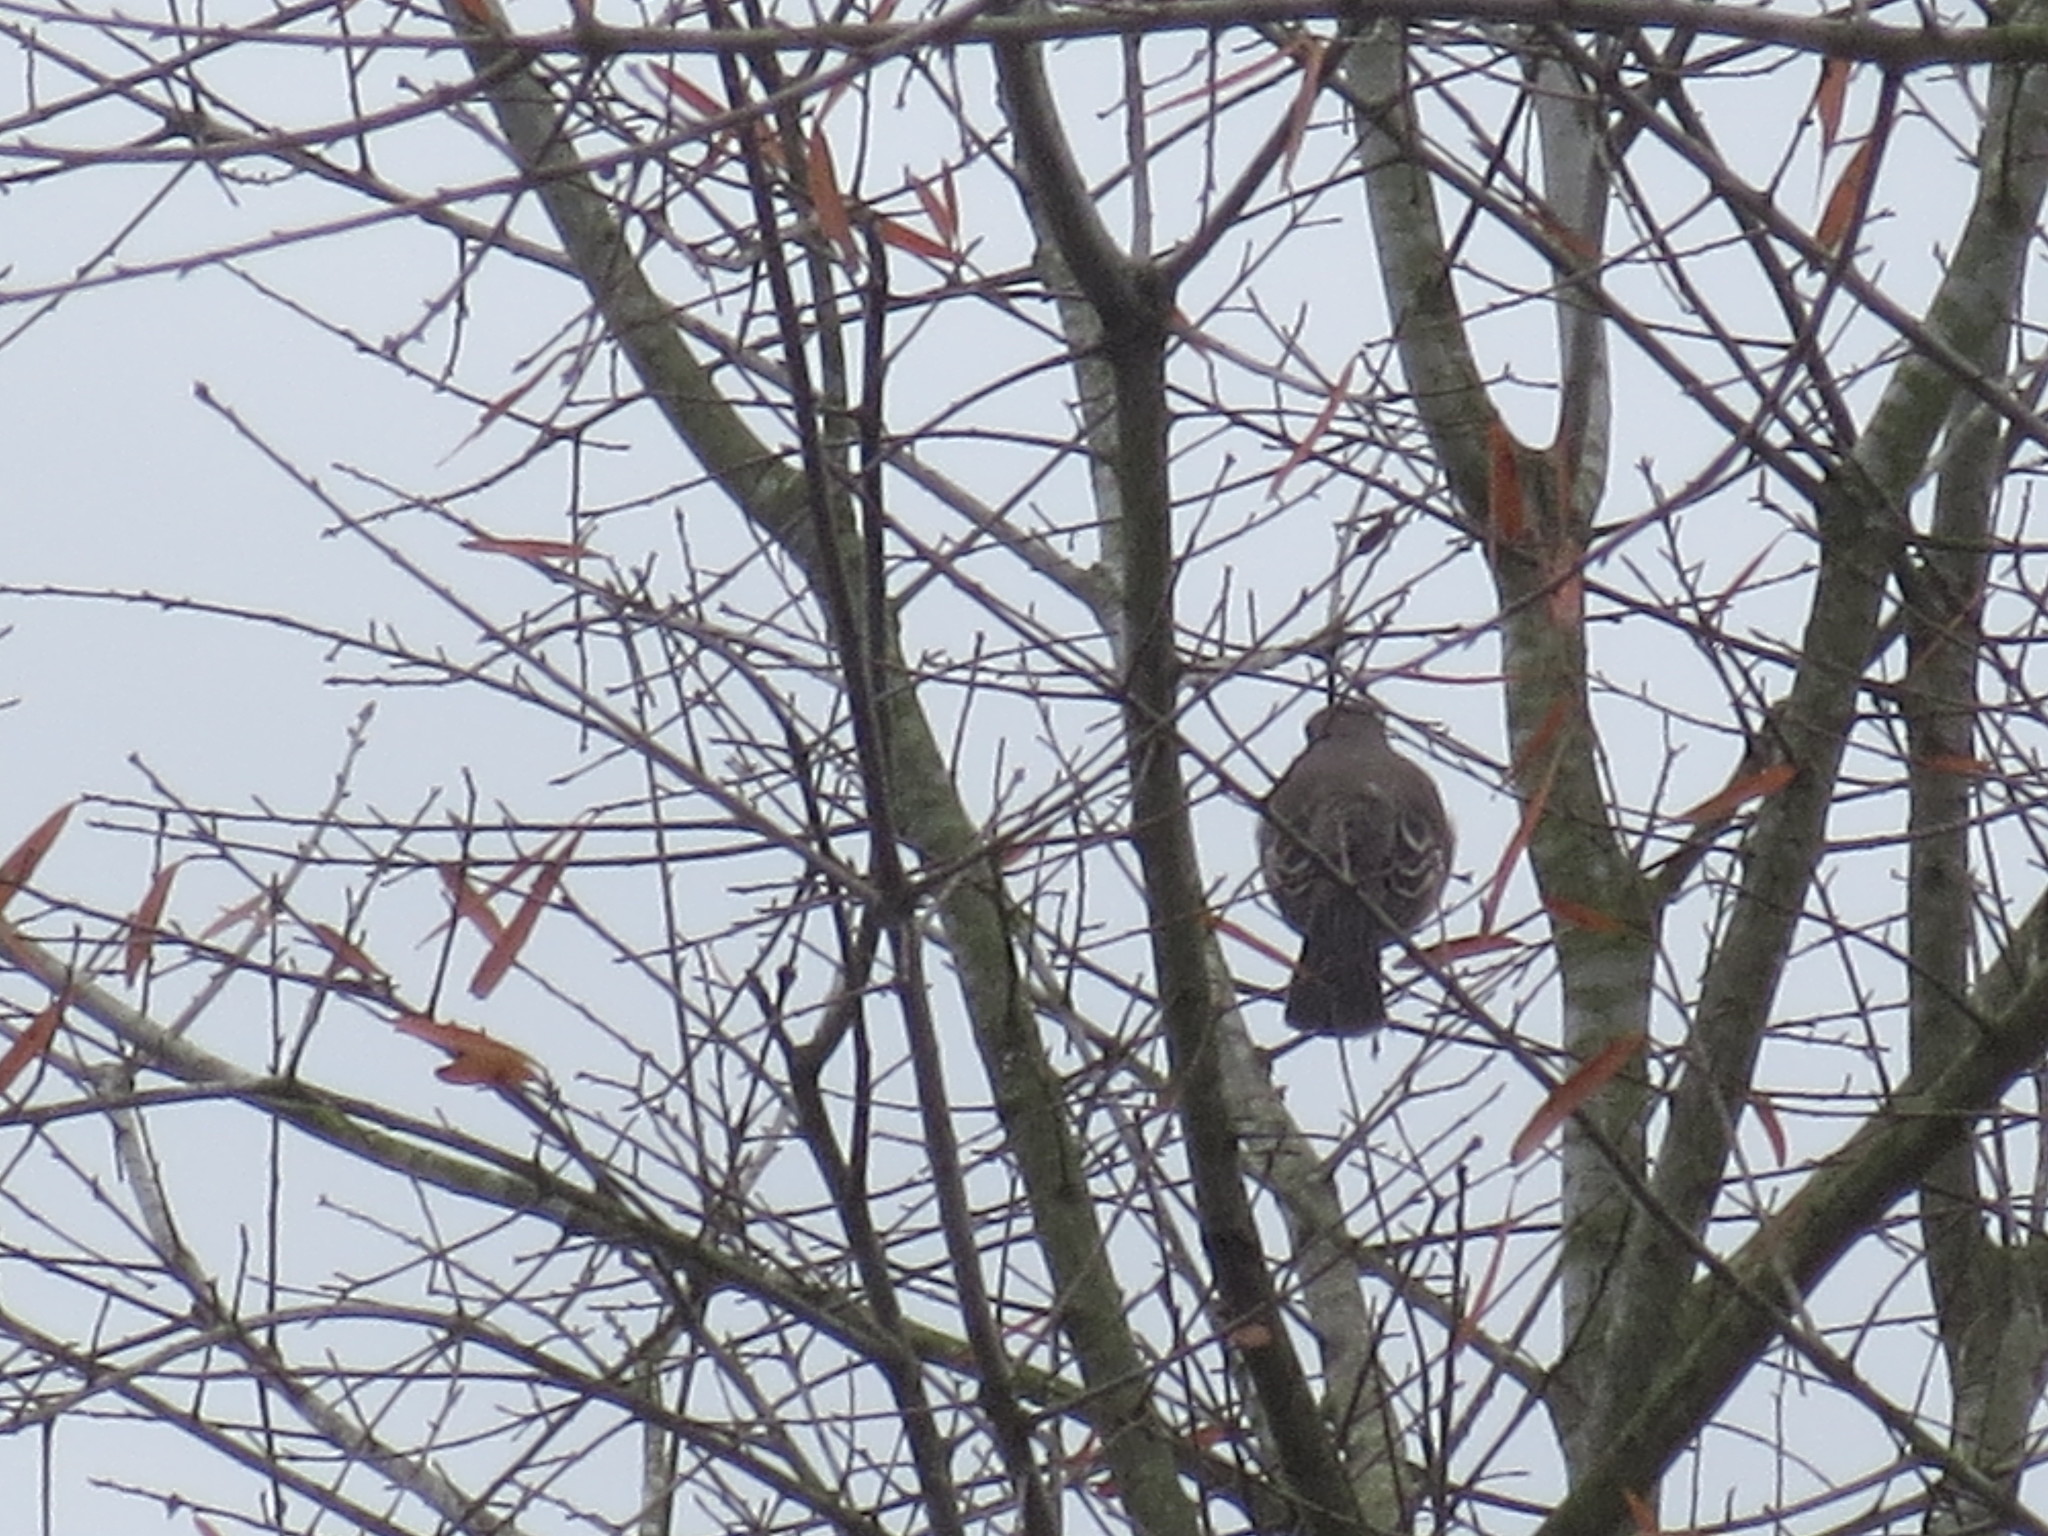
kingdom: Animalia
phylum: Chordata
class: Aves
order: Passeriformes
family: Mimidae
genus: Mimus
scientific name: Mimus polyglottos
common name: Northern mockingbird
